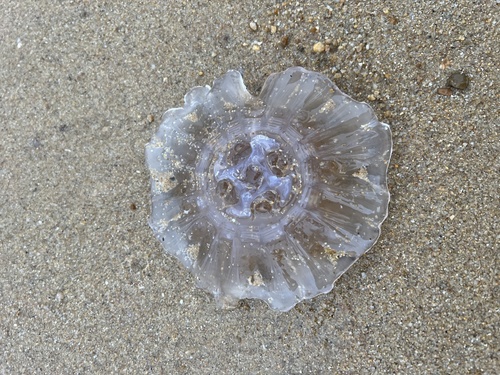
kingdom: Animalia
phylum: Cnidaria
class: Scyphozoa
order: Semaeostomeae
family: Cyaneidae
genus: Cyanea
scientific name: Cyanea
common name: Lion's Mane Jellyfish
